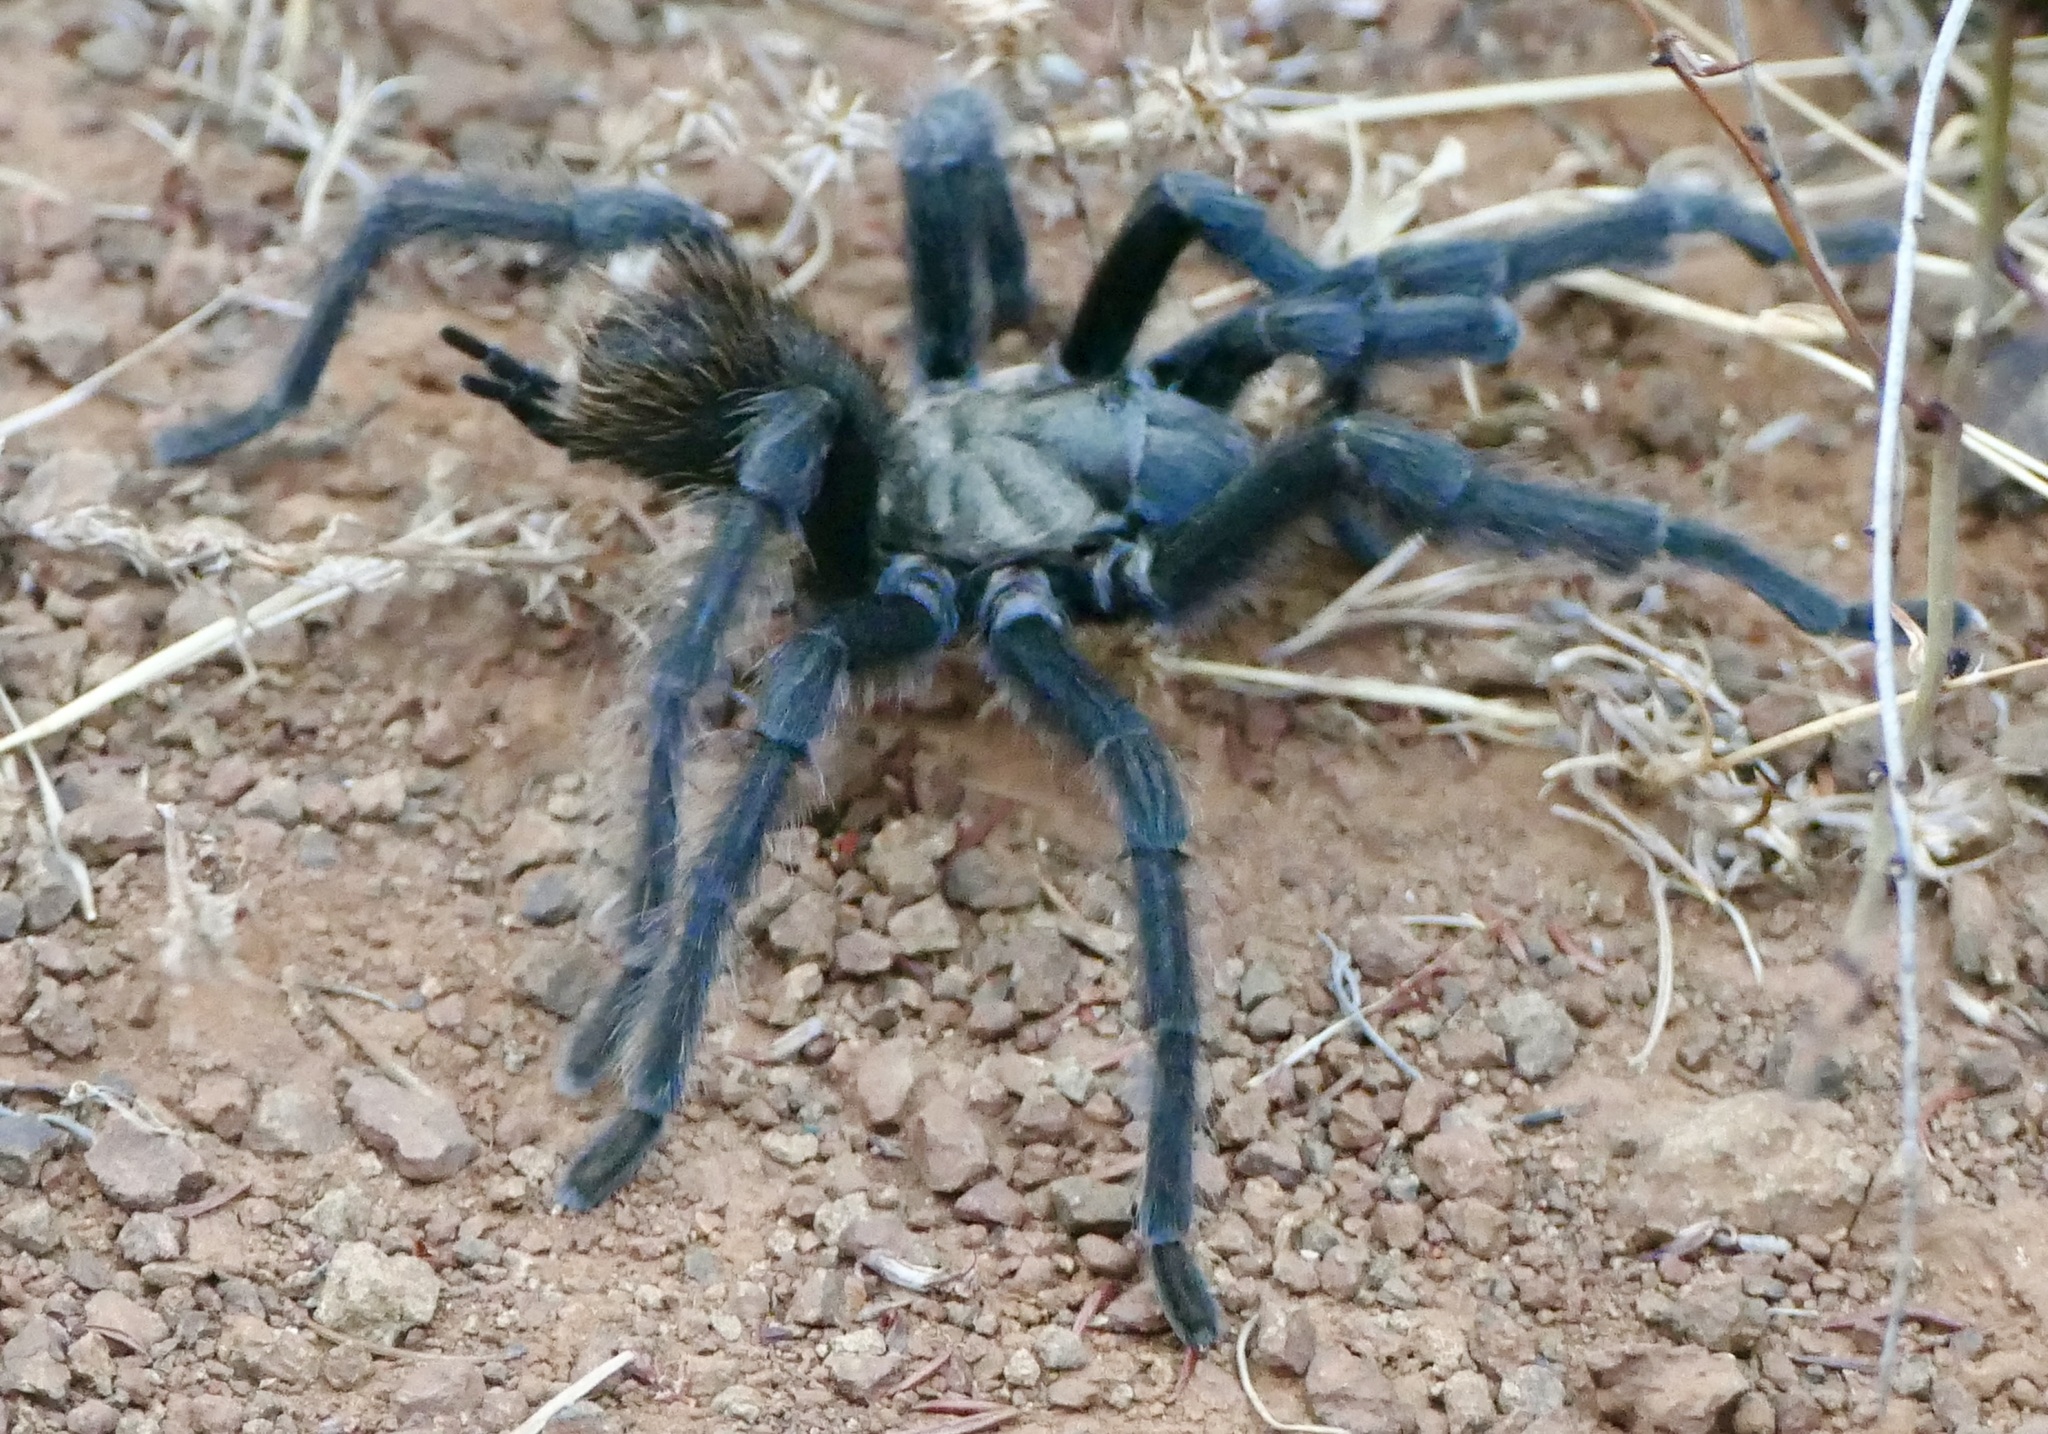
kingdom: Animalia
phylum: Arthropoda
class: Arachnida
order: Araneae
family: Theraphosidae
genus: Aphonopelma
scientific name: Aphonopelma iodius
